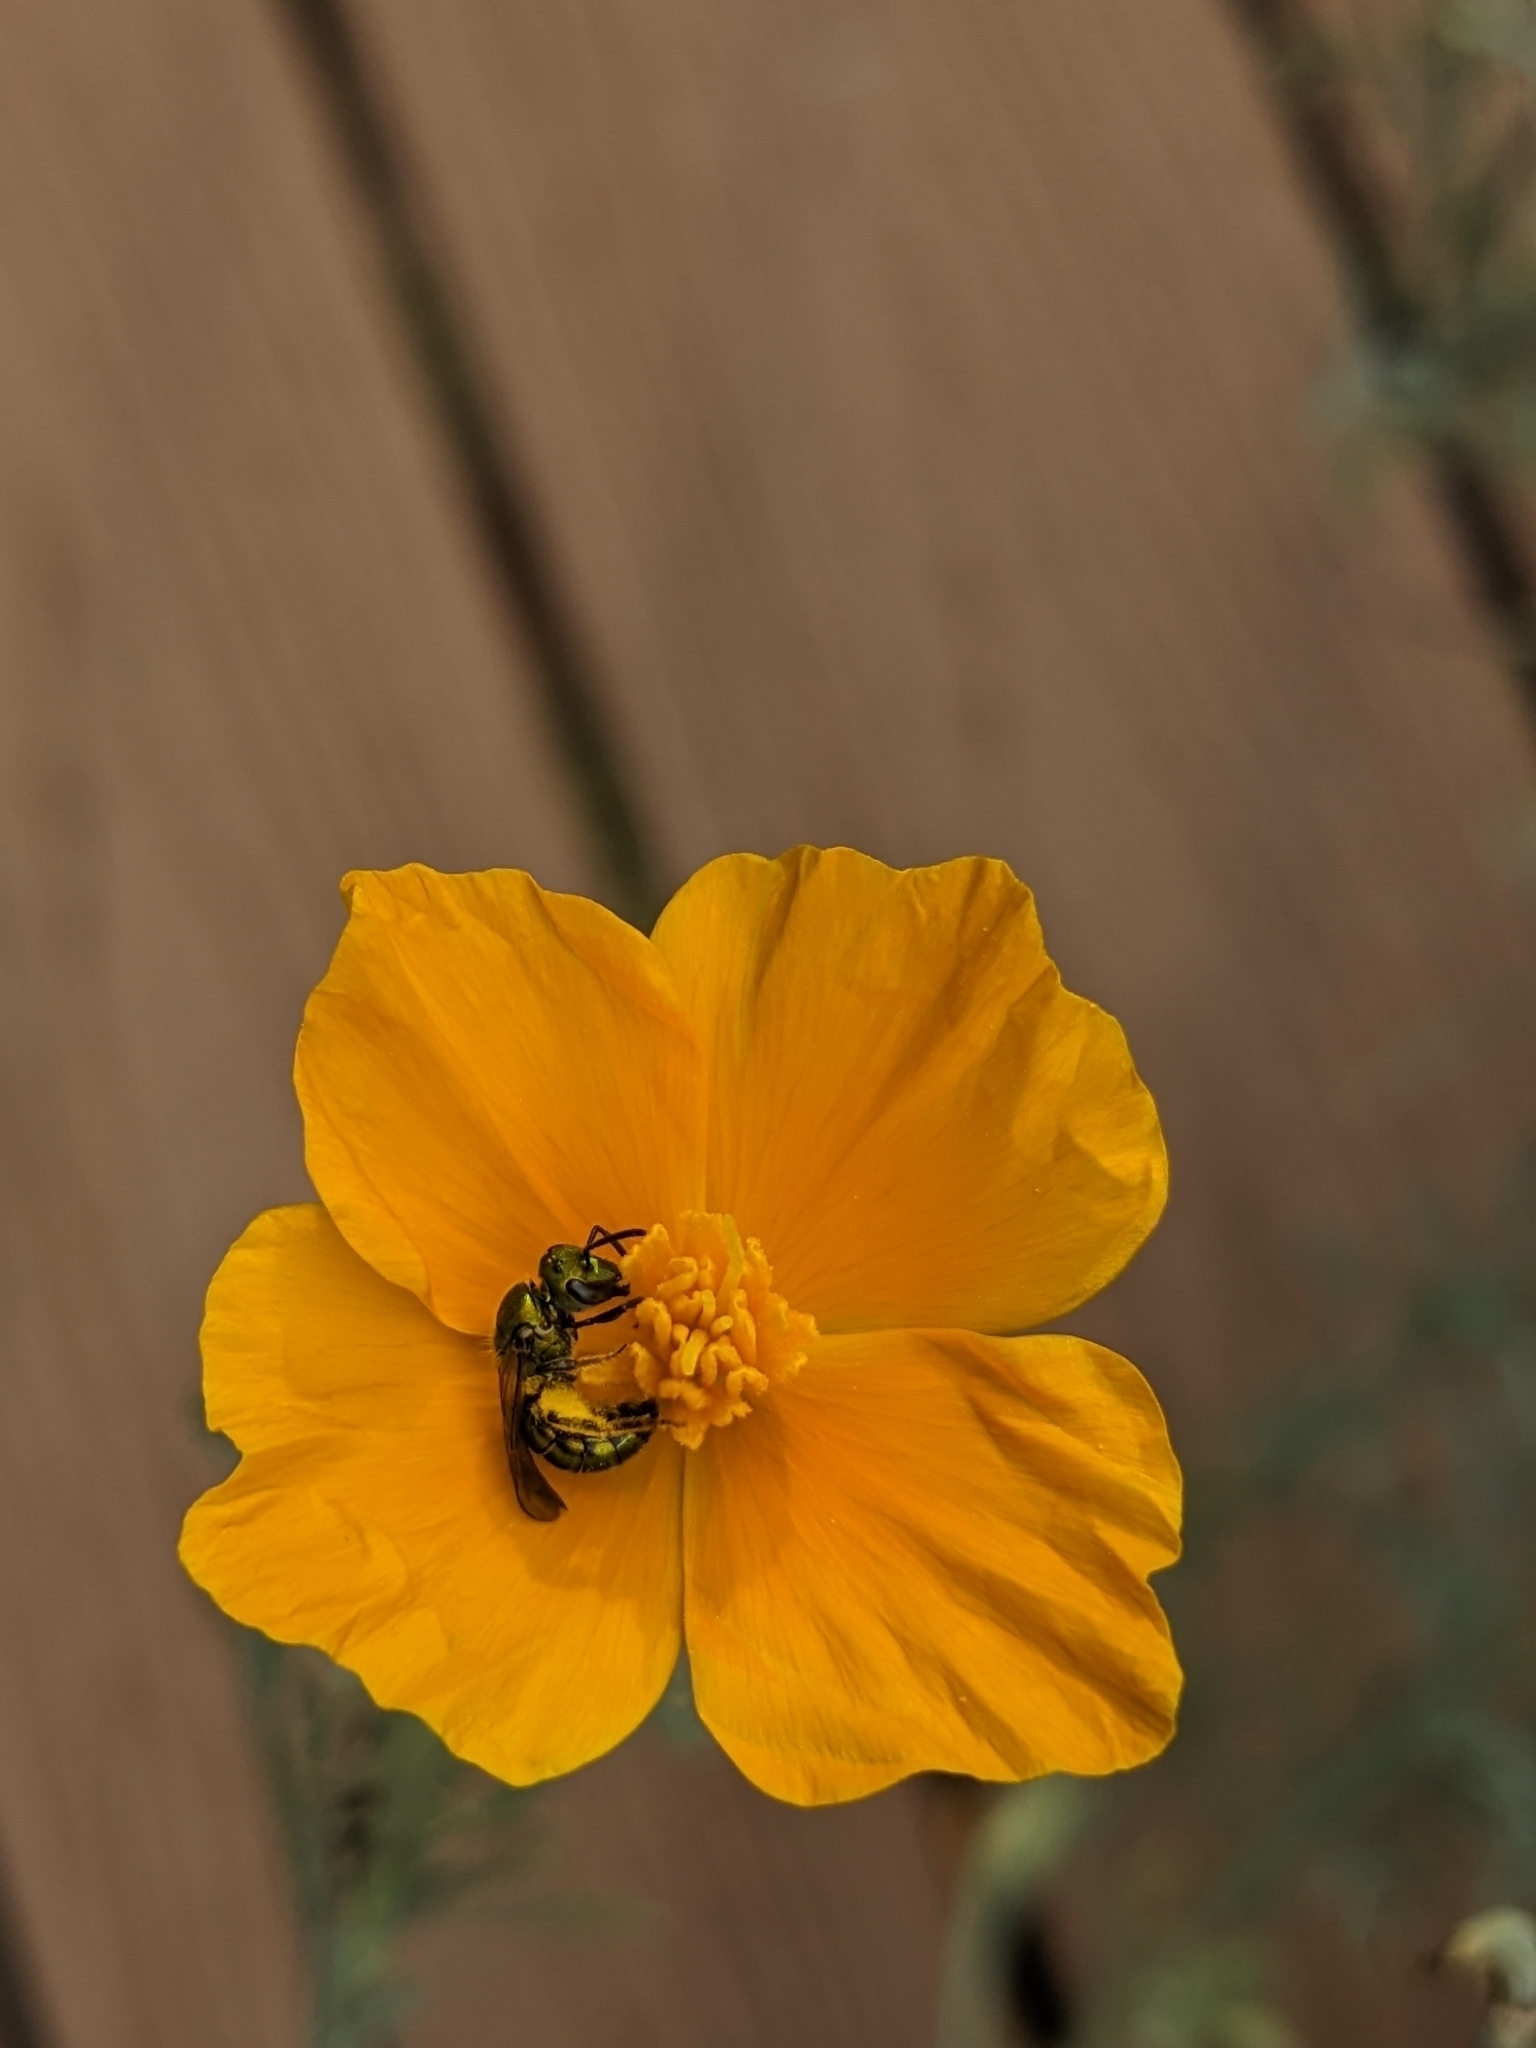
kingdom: Animalia
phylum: Arthropoda
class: Insecta
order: Hymenoptera
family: Halictidae
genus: Augochlora
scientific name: Augochlora pura
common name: Pure green sweat bee
